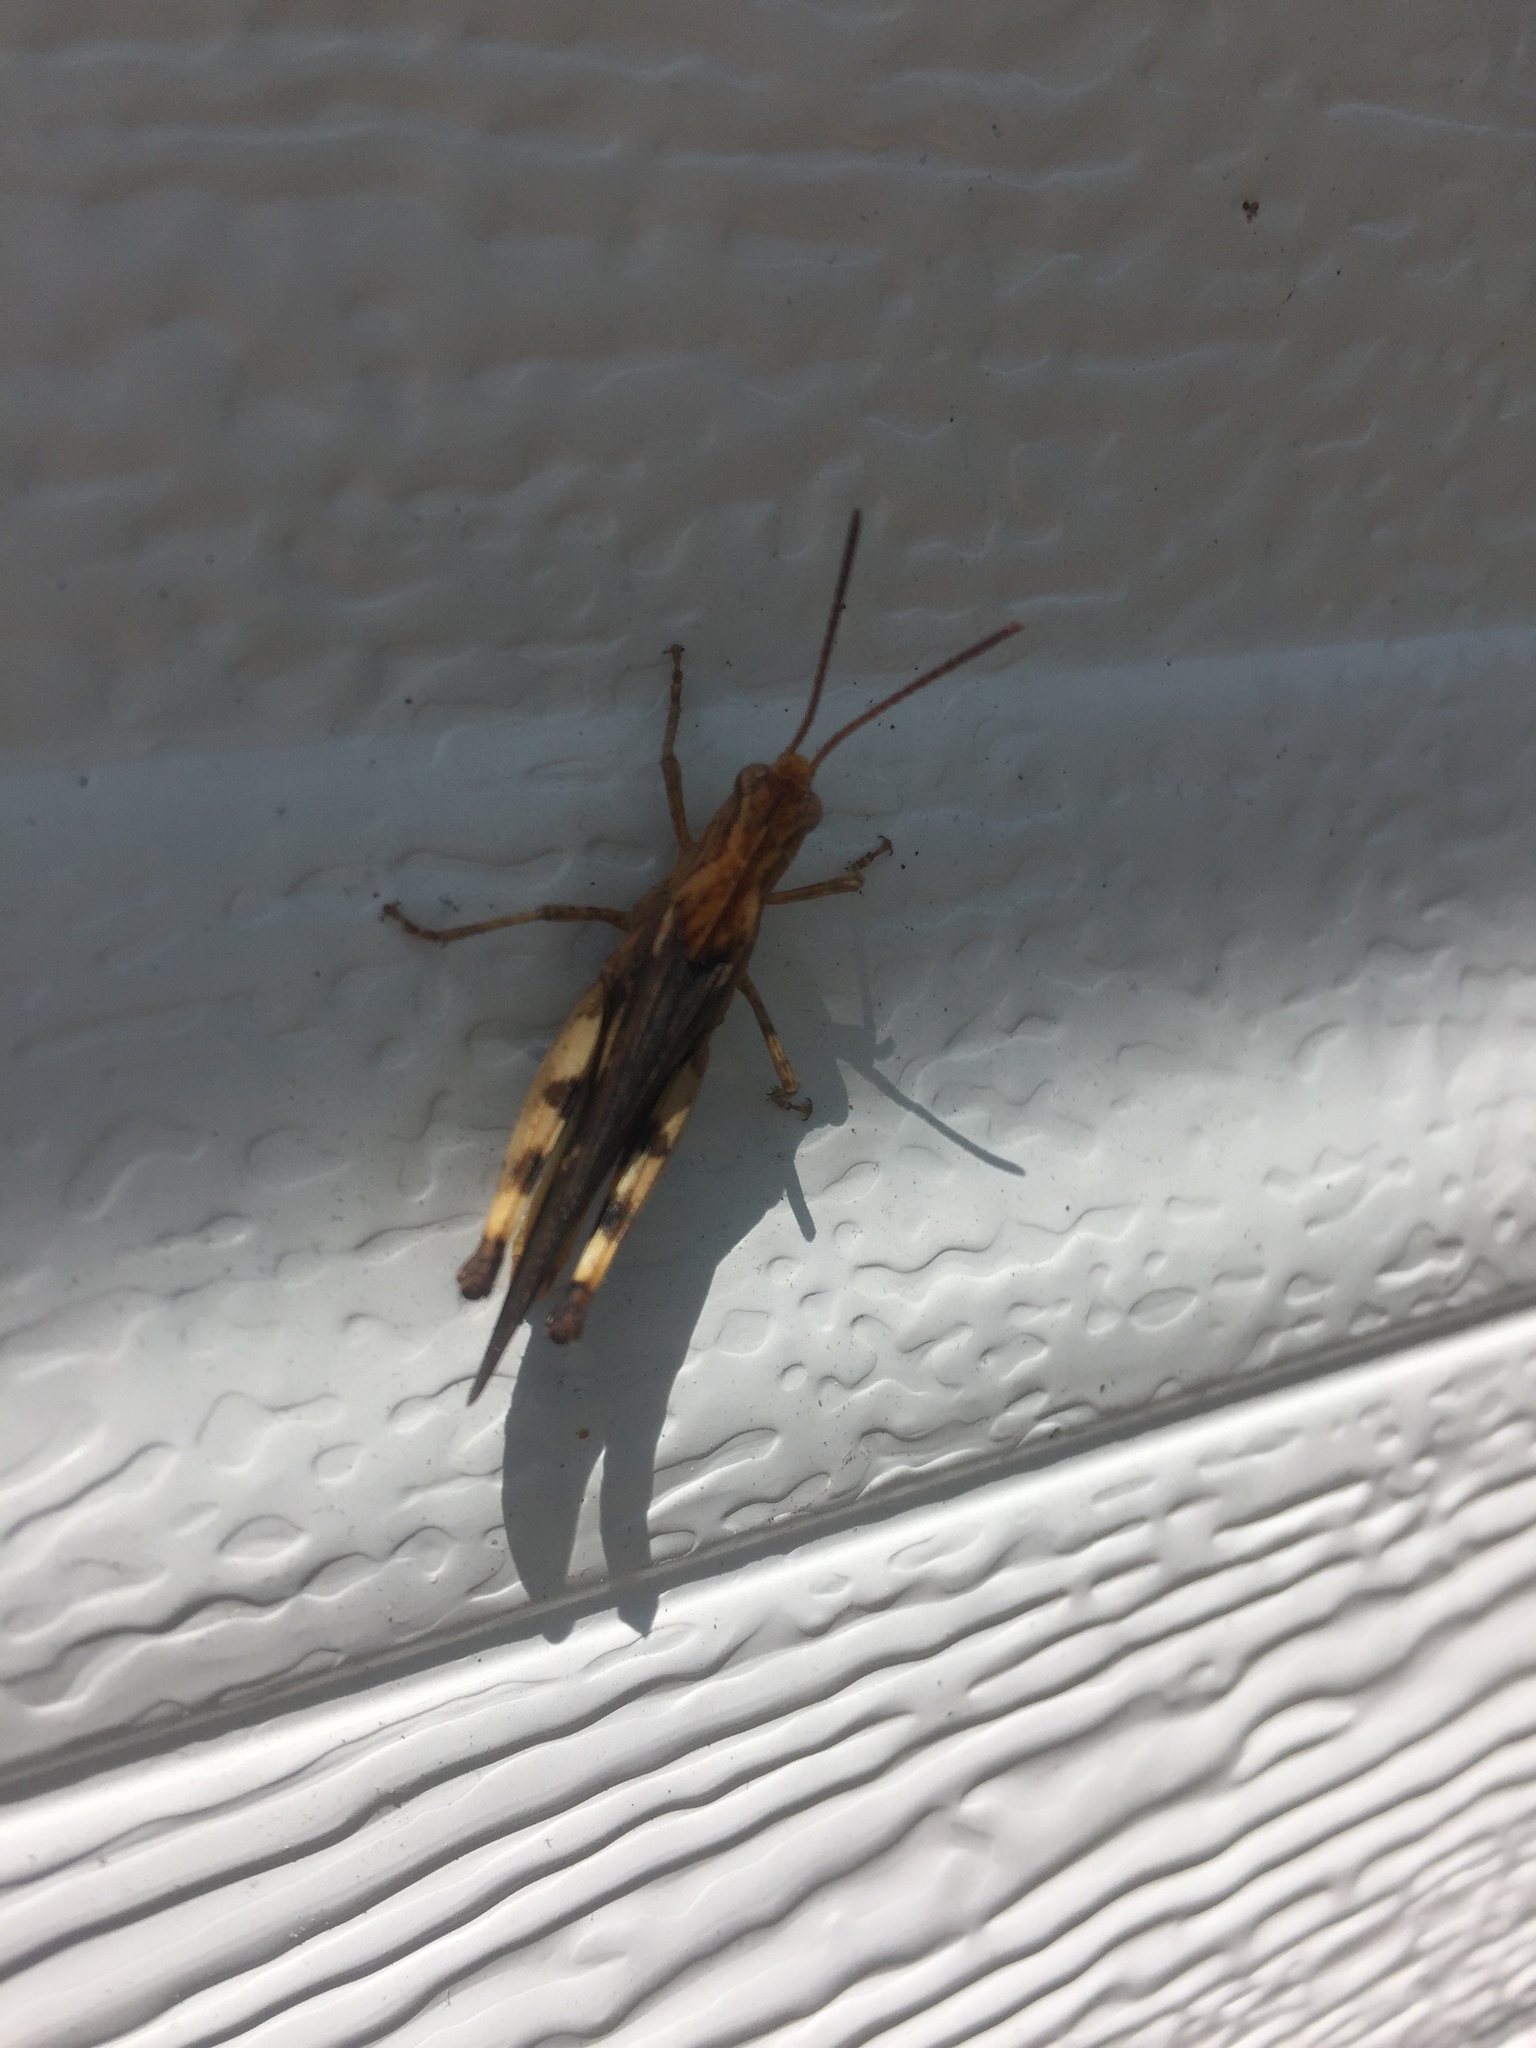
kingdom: Animalia
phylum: Arthropoda
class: Insecta
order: Orthoptera
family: Acrididae
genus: Chortophaga
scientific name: Chortophaga viridifasciata
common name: Green-striped grasshopper
